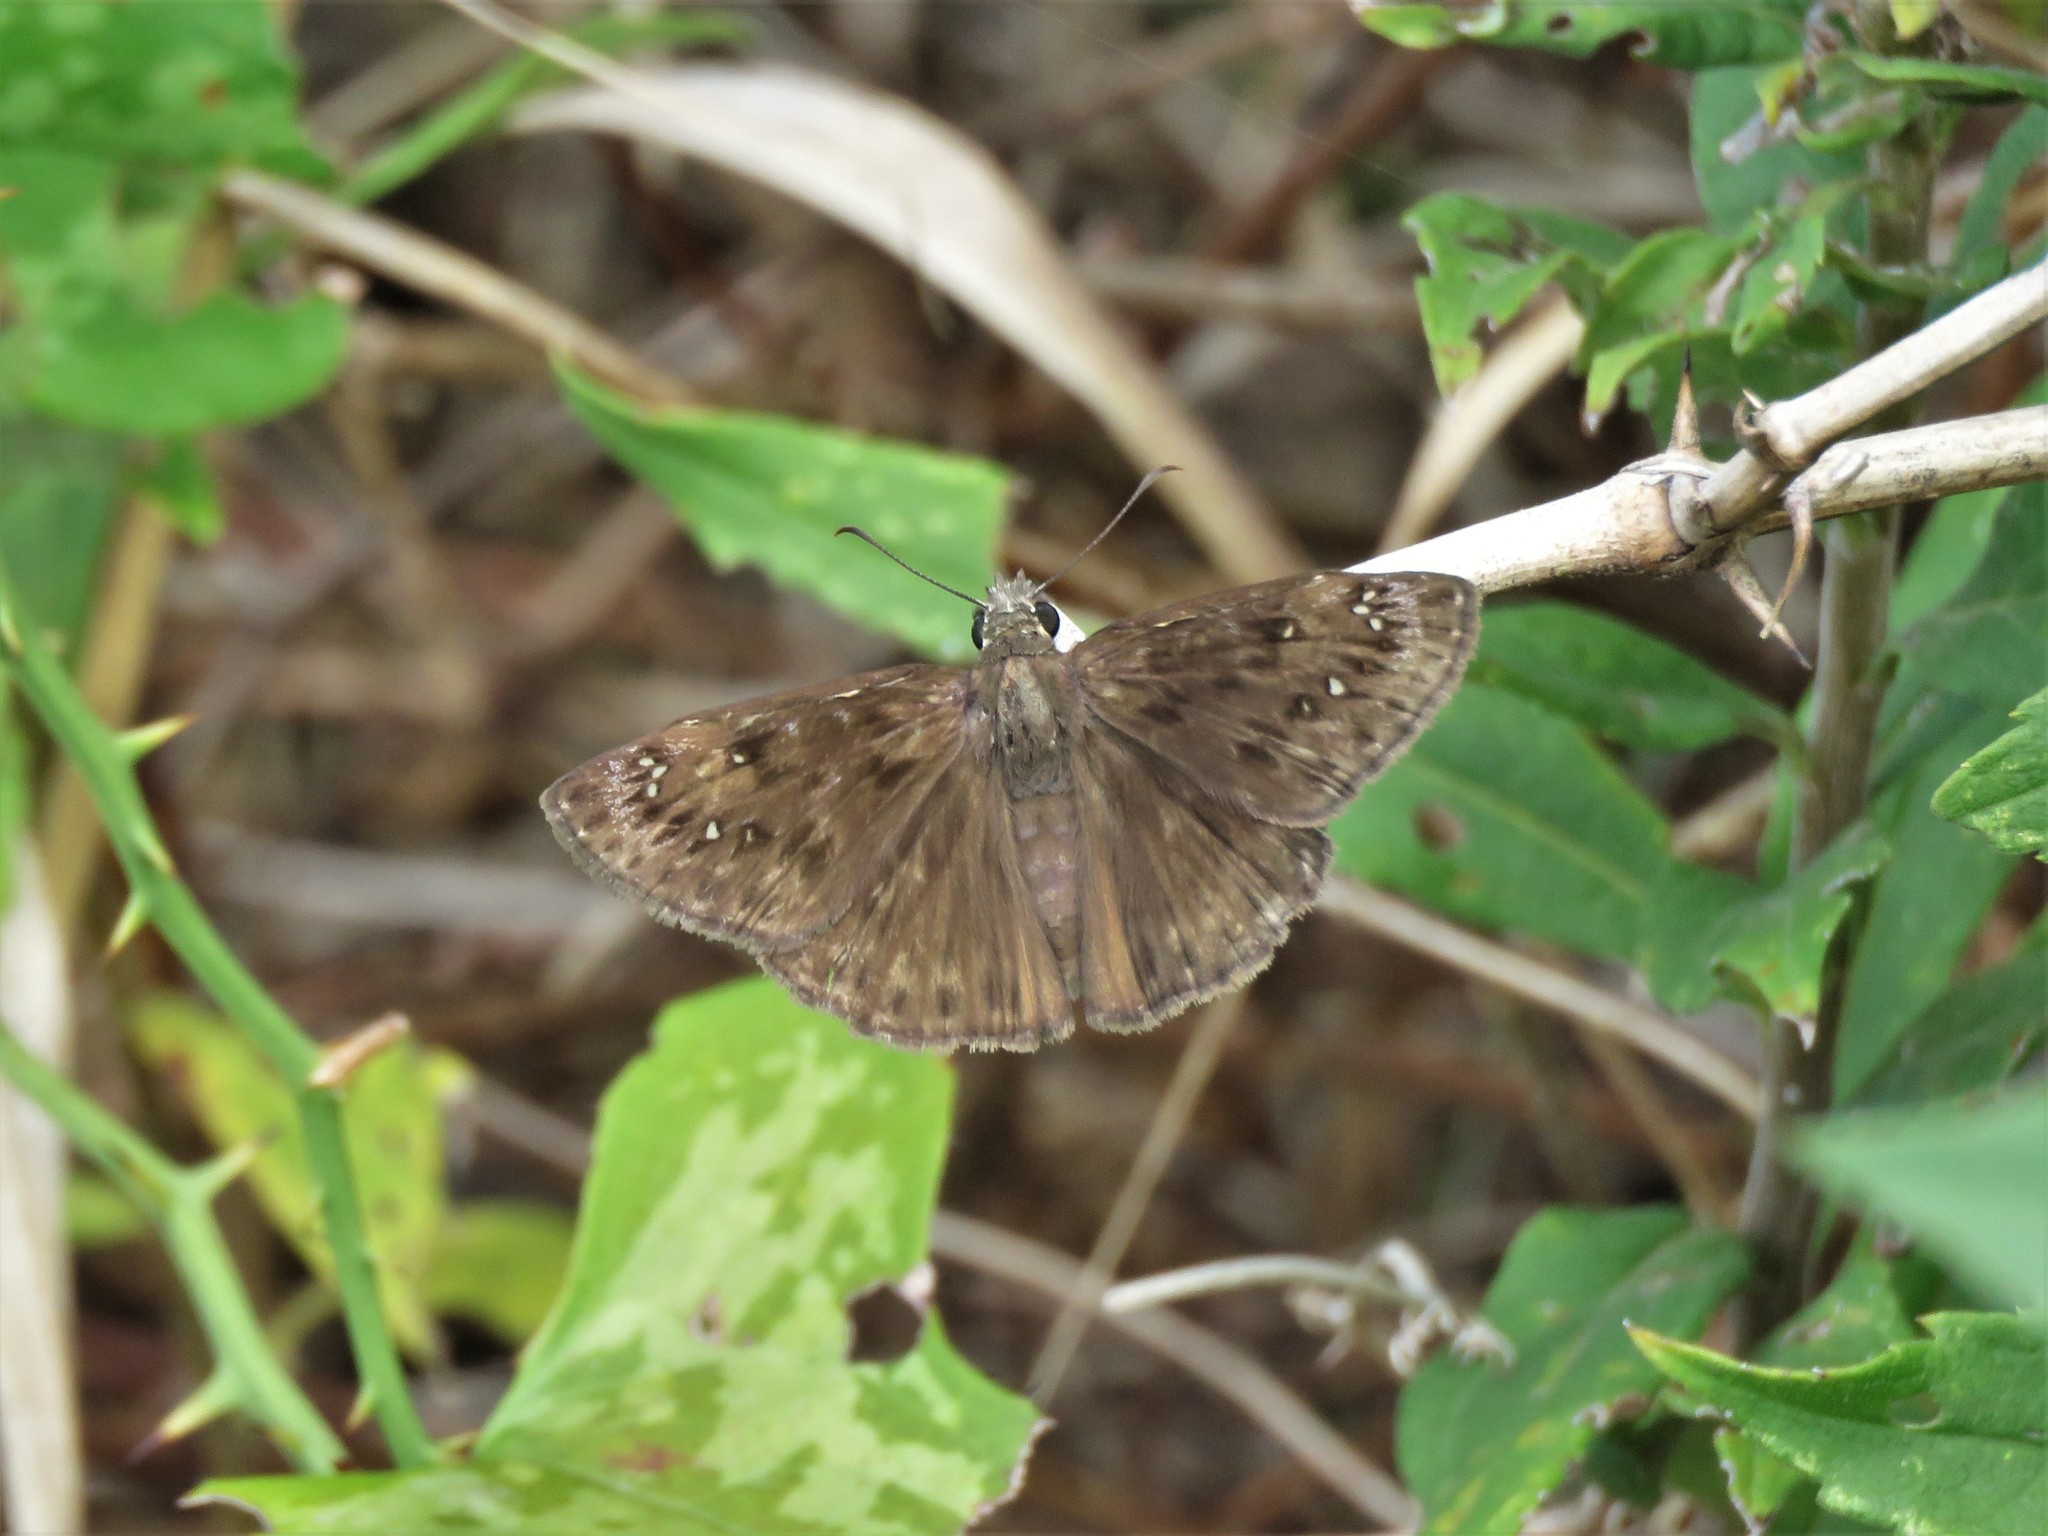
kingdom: Animalia
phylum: Arthropoda
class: Insecta
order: Lepidoptera
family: Hesperiidae
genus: Erynnis
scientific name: Erynnis horatius
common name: Horace's duskywing
